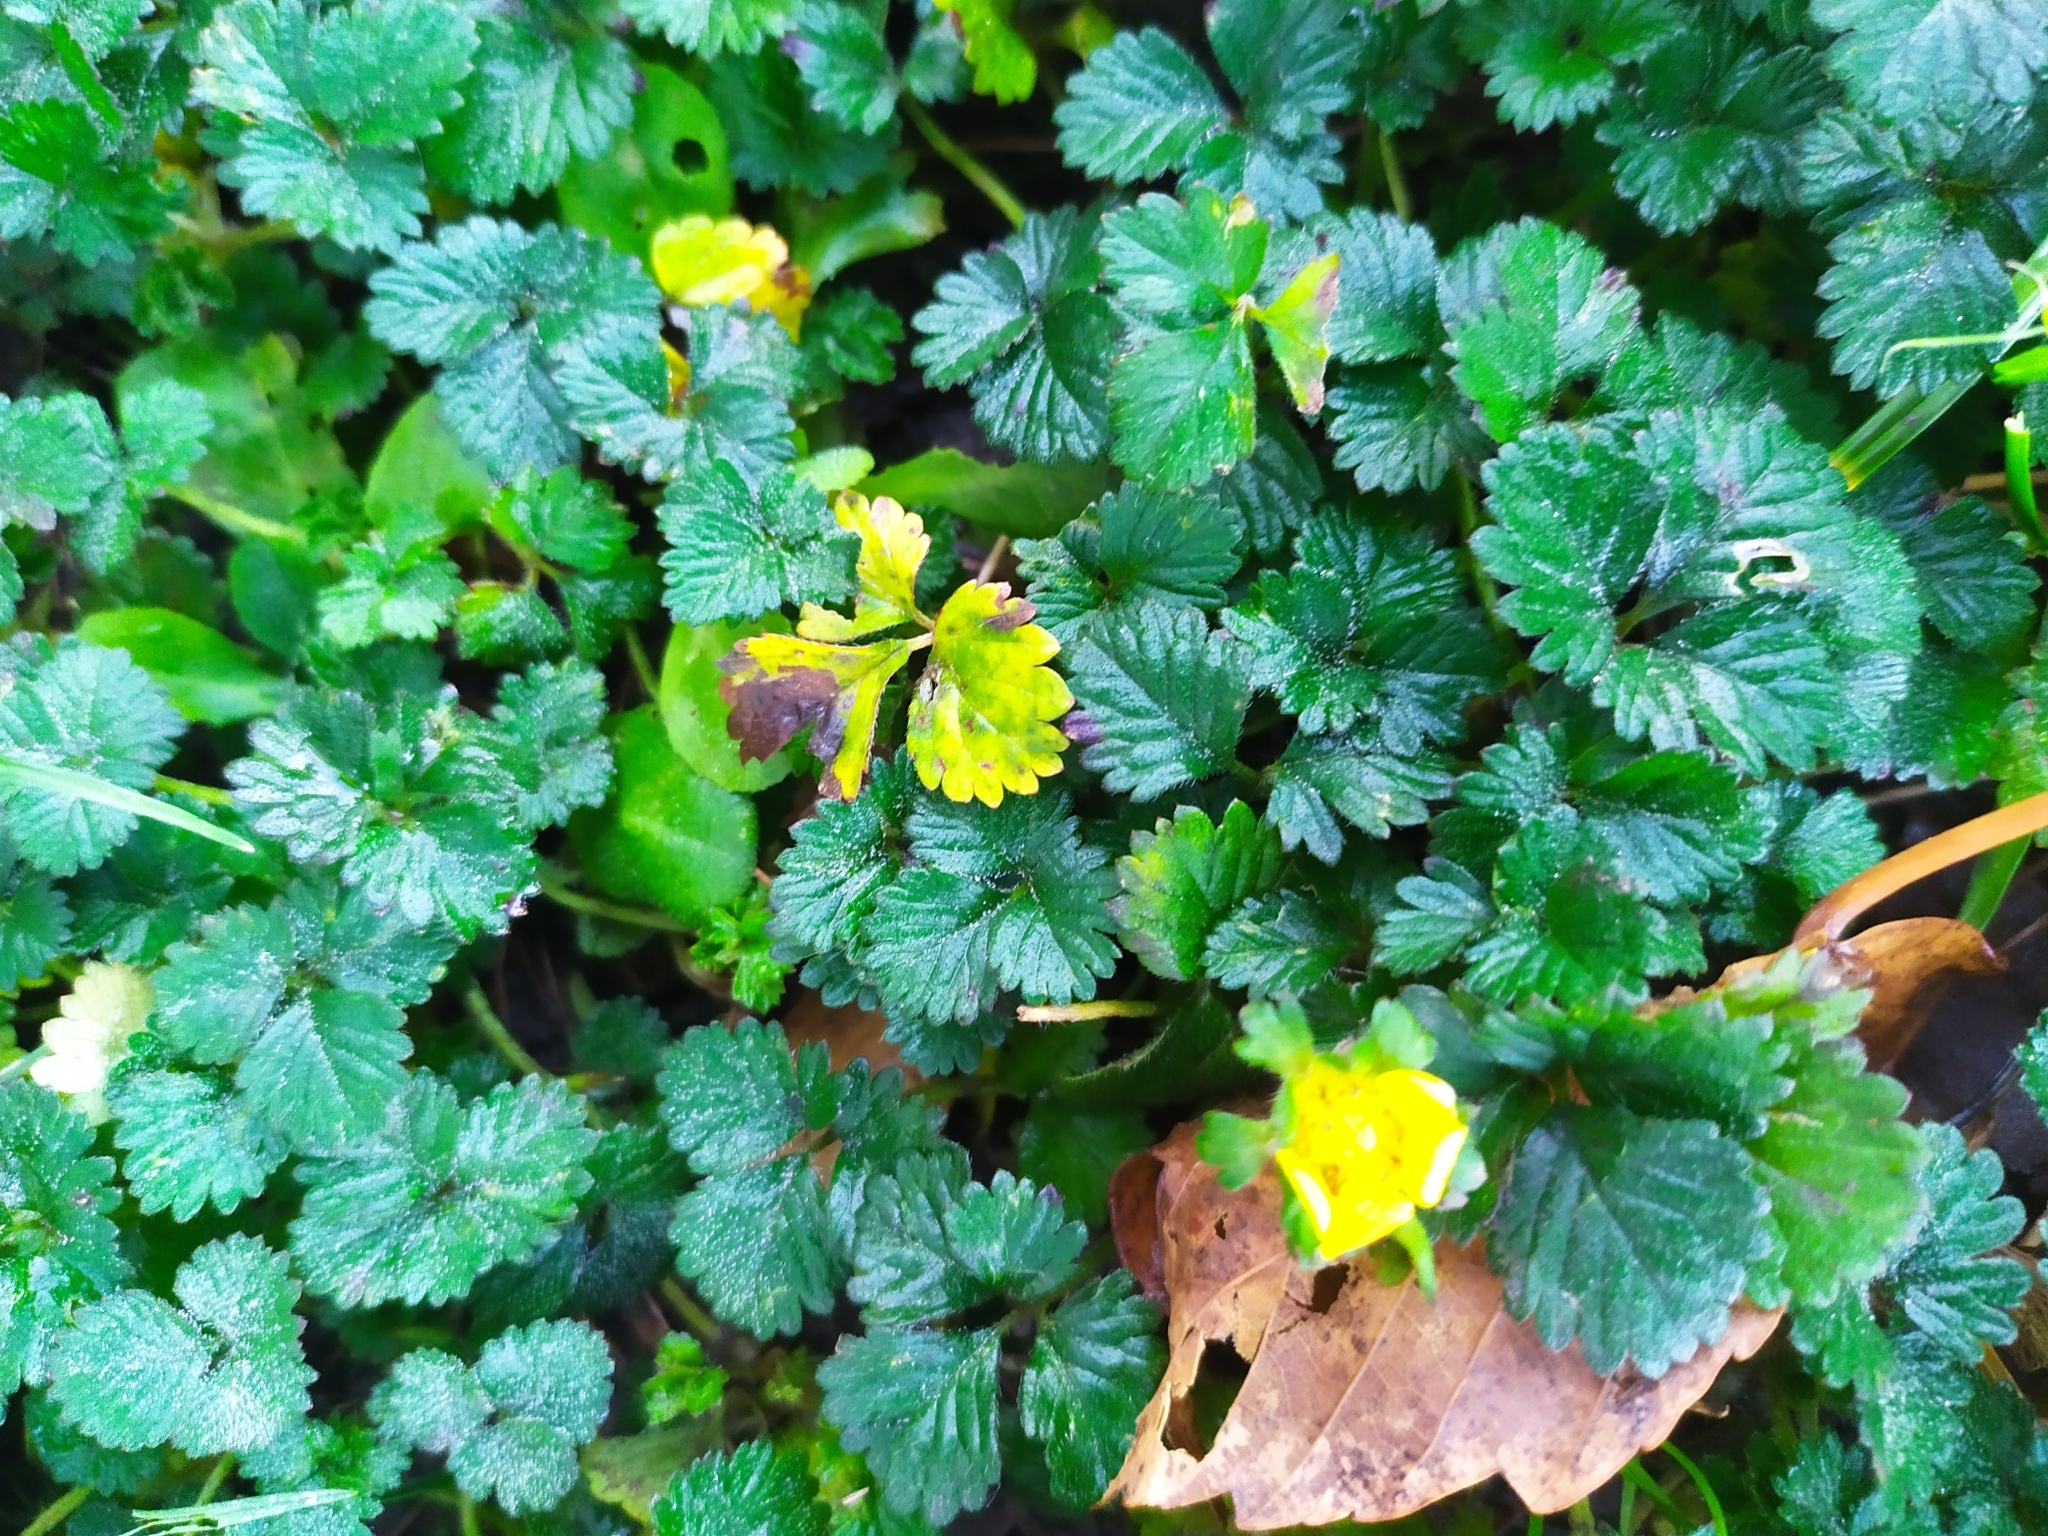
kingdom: Fungi
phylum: Basidiomycota
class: Pucciniomycetes
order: Pucciniales
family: Phragmidiaceae
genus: Phragmidium
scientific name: Phragmidium mexicanum
